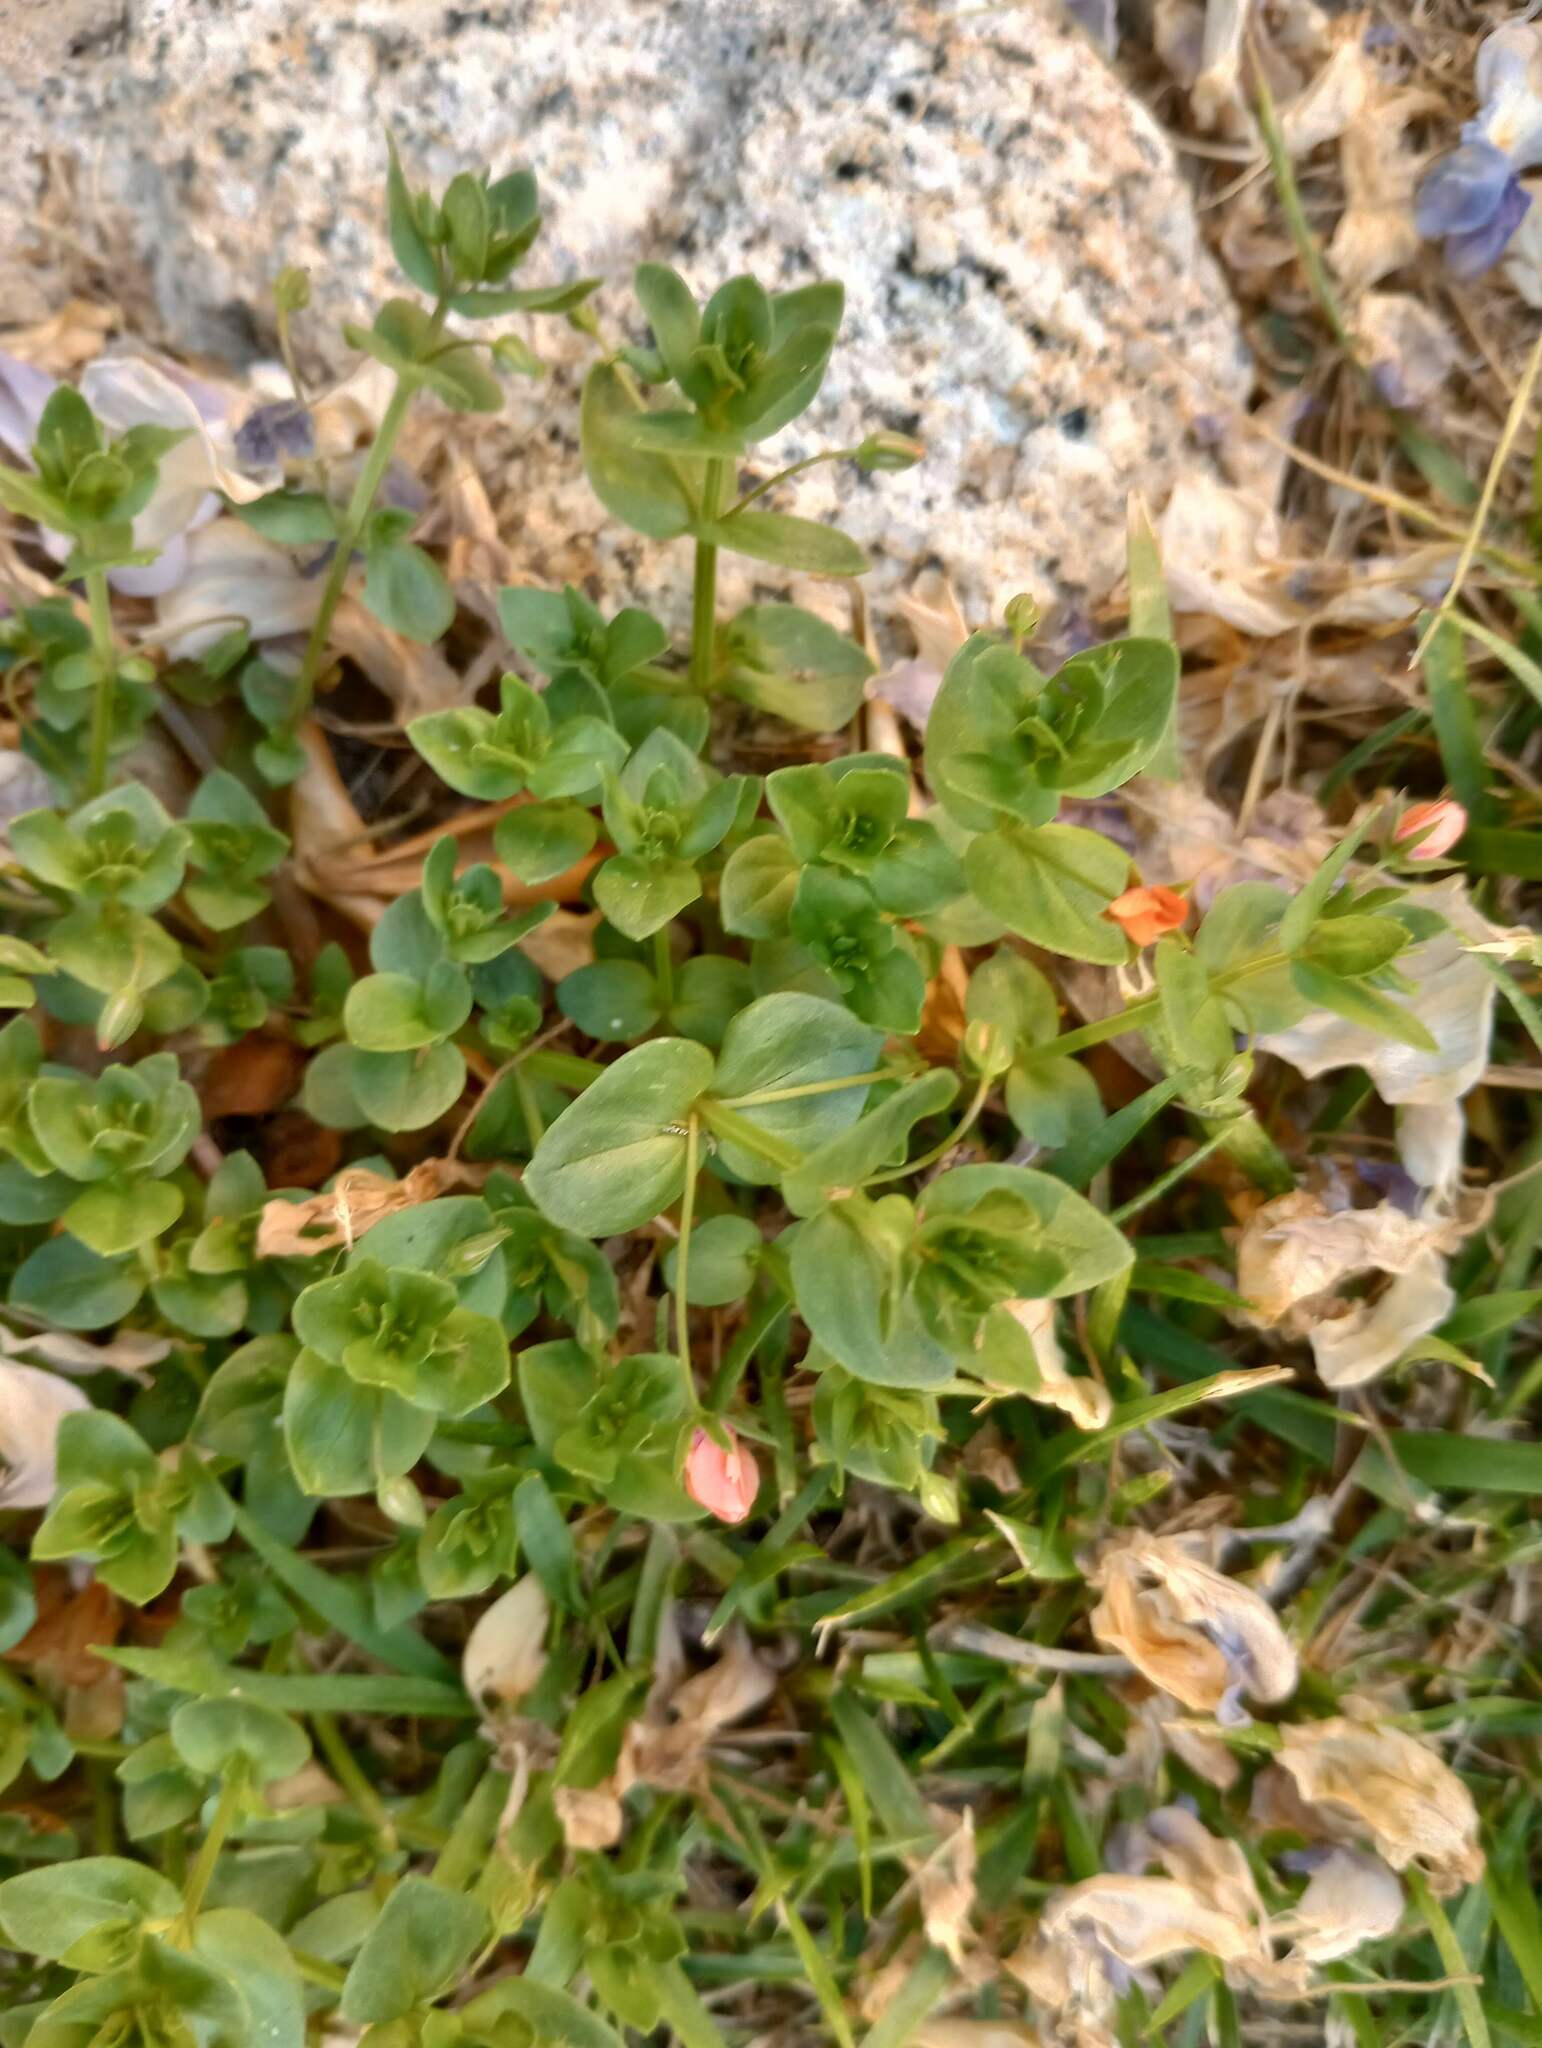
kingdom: Plantae
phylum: Tracheophyta
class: Magnoliopsida
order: Ericales
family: Primulaceae
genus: Lysimachia
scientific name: Lysimachia arvensis
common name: Scarlet pimpernel
